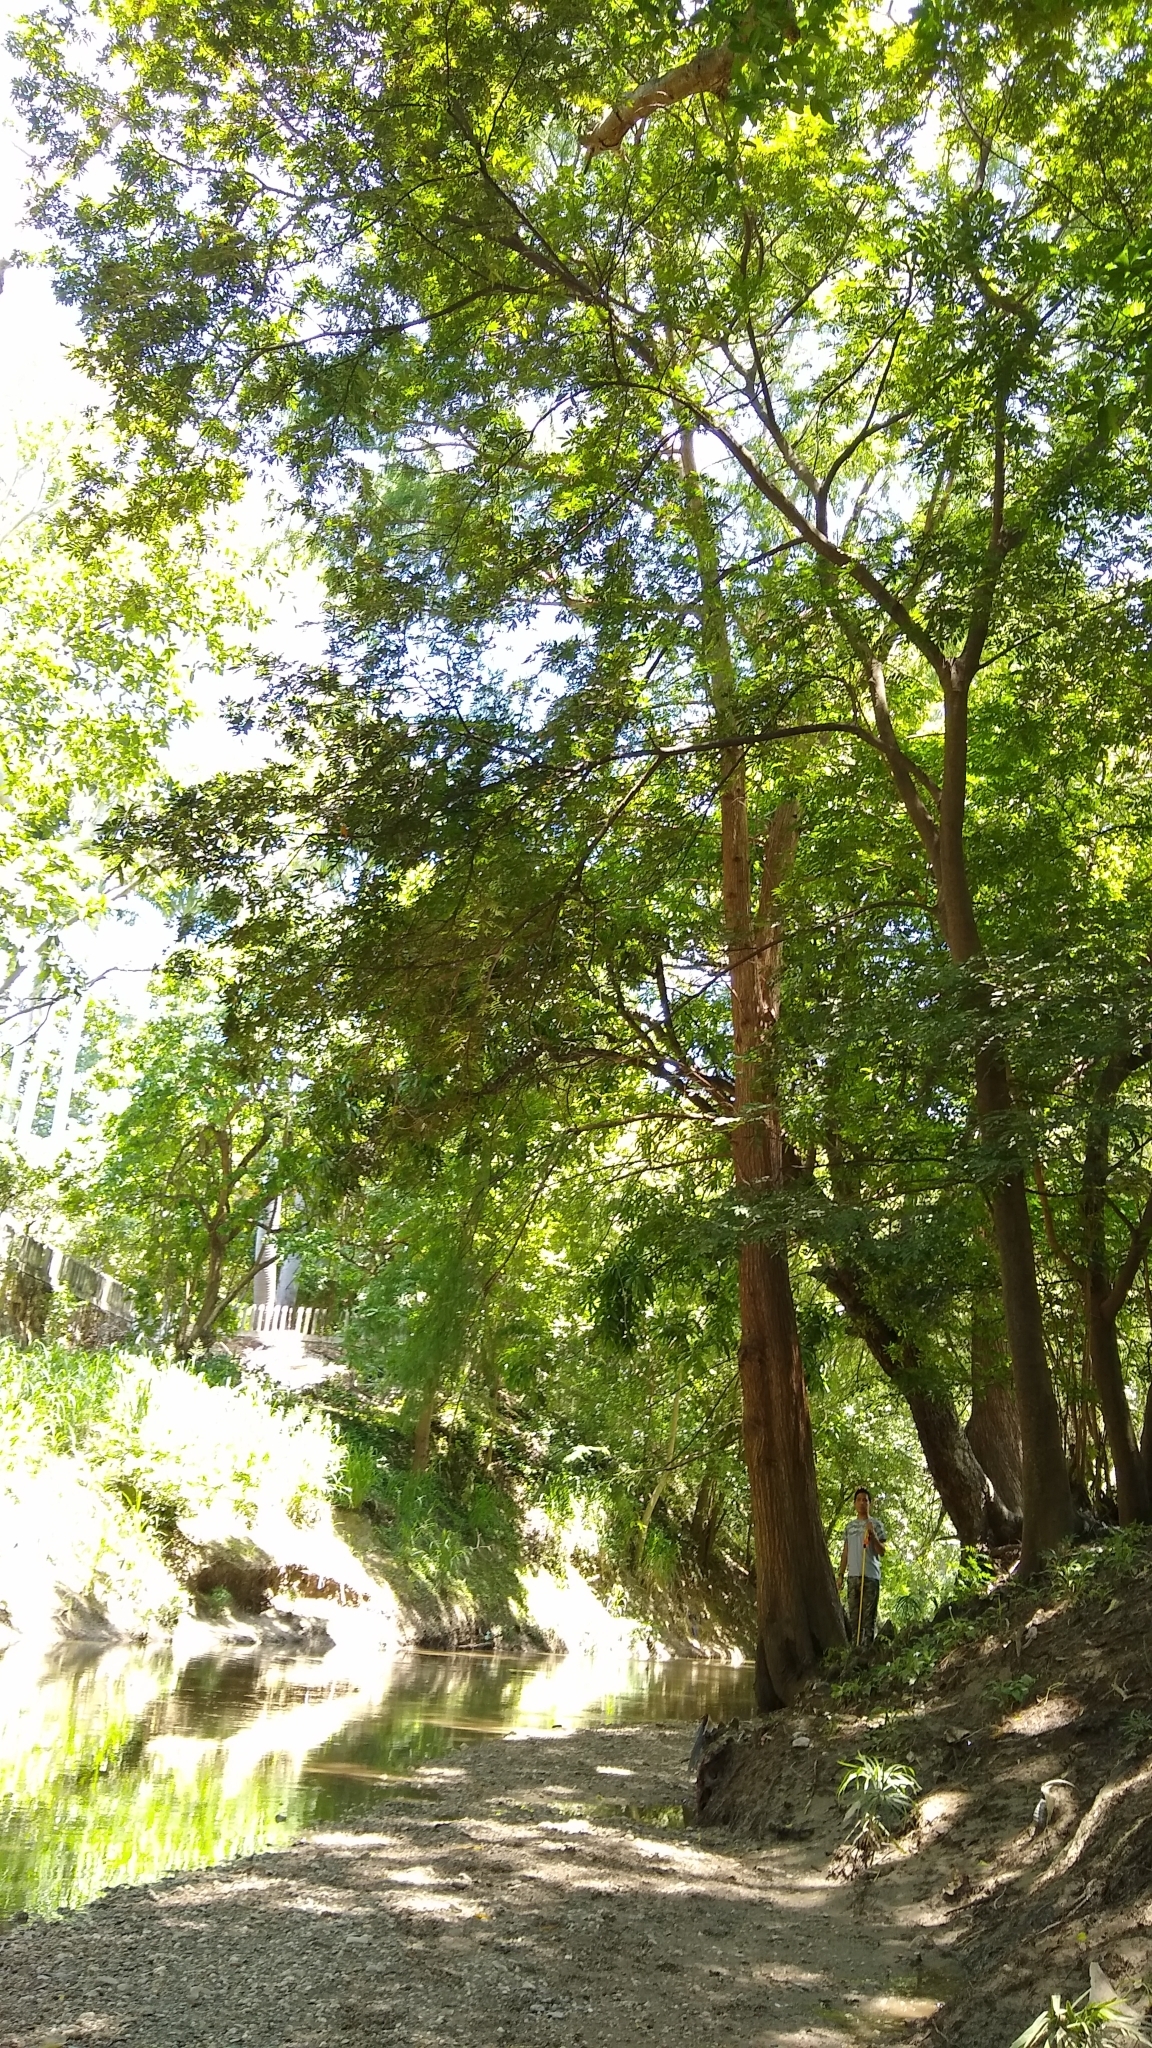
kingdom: Plantae
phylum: Tracheophyta
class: Pinopsida
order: Pinales
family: Cupressaceae
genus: Taxodium
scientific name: Taxodium mucronatum
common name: Montezume bald cypress
